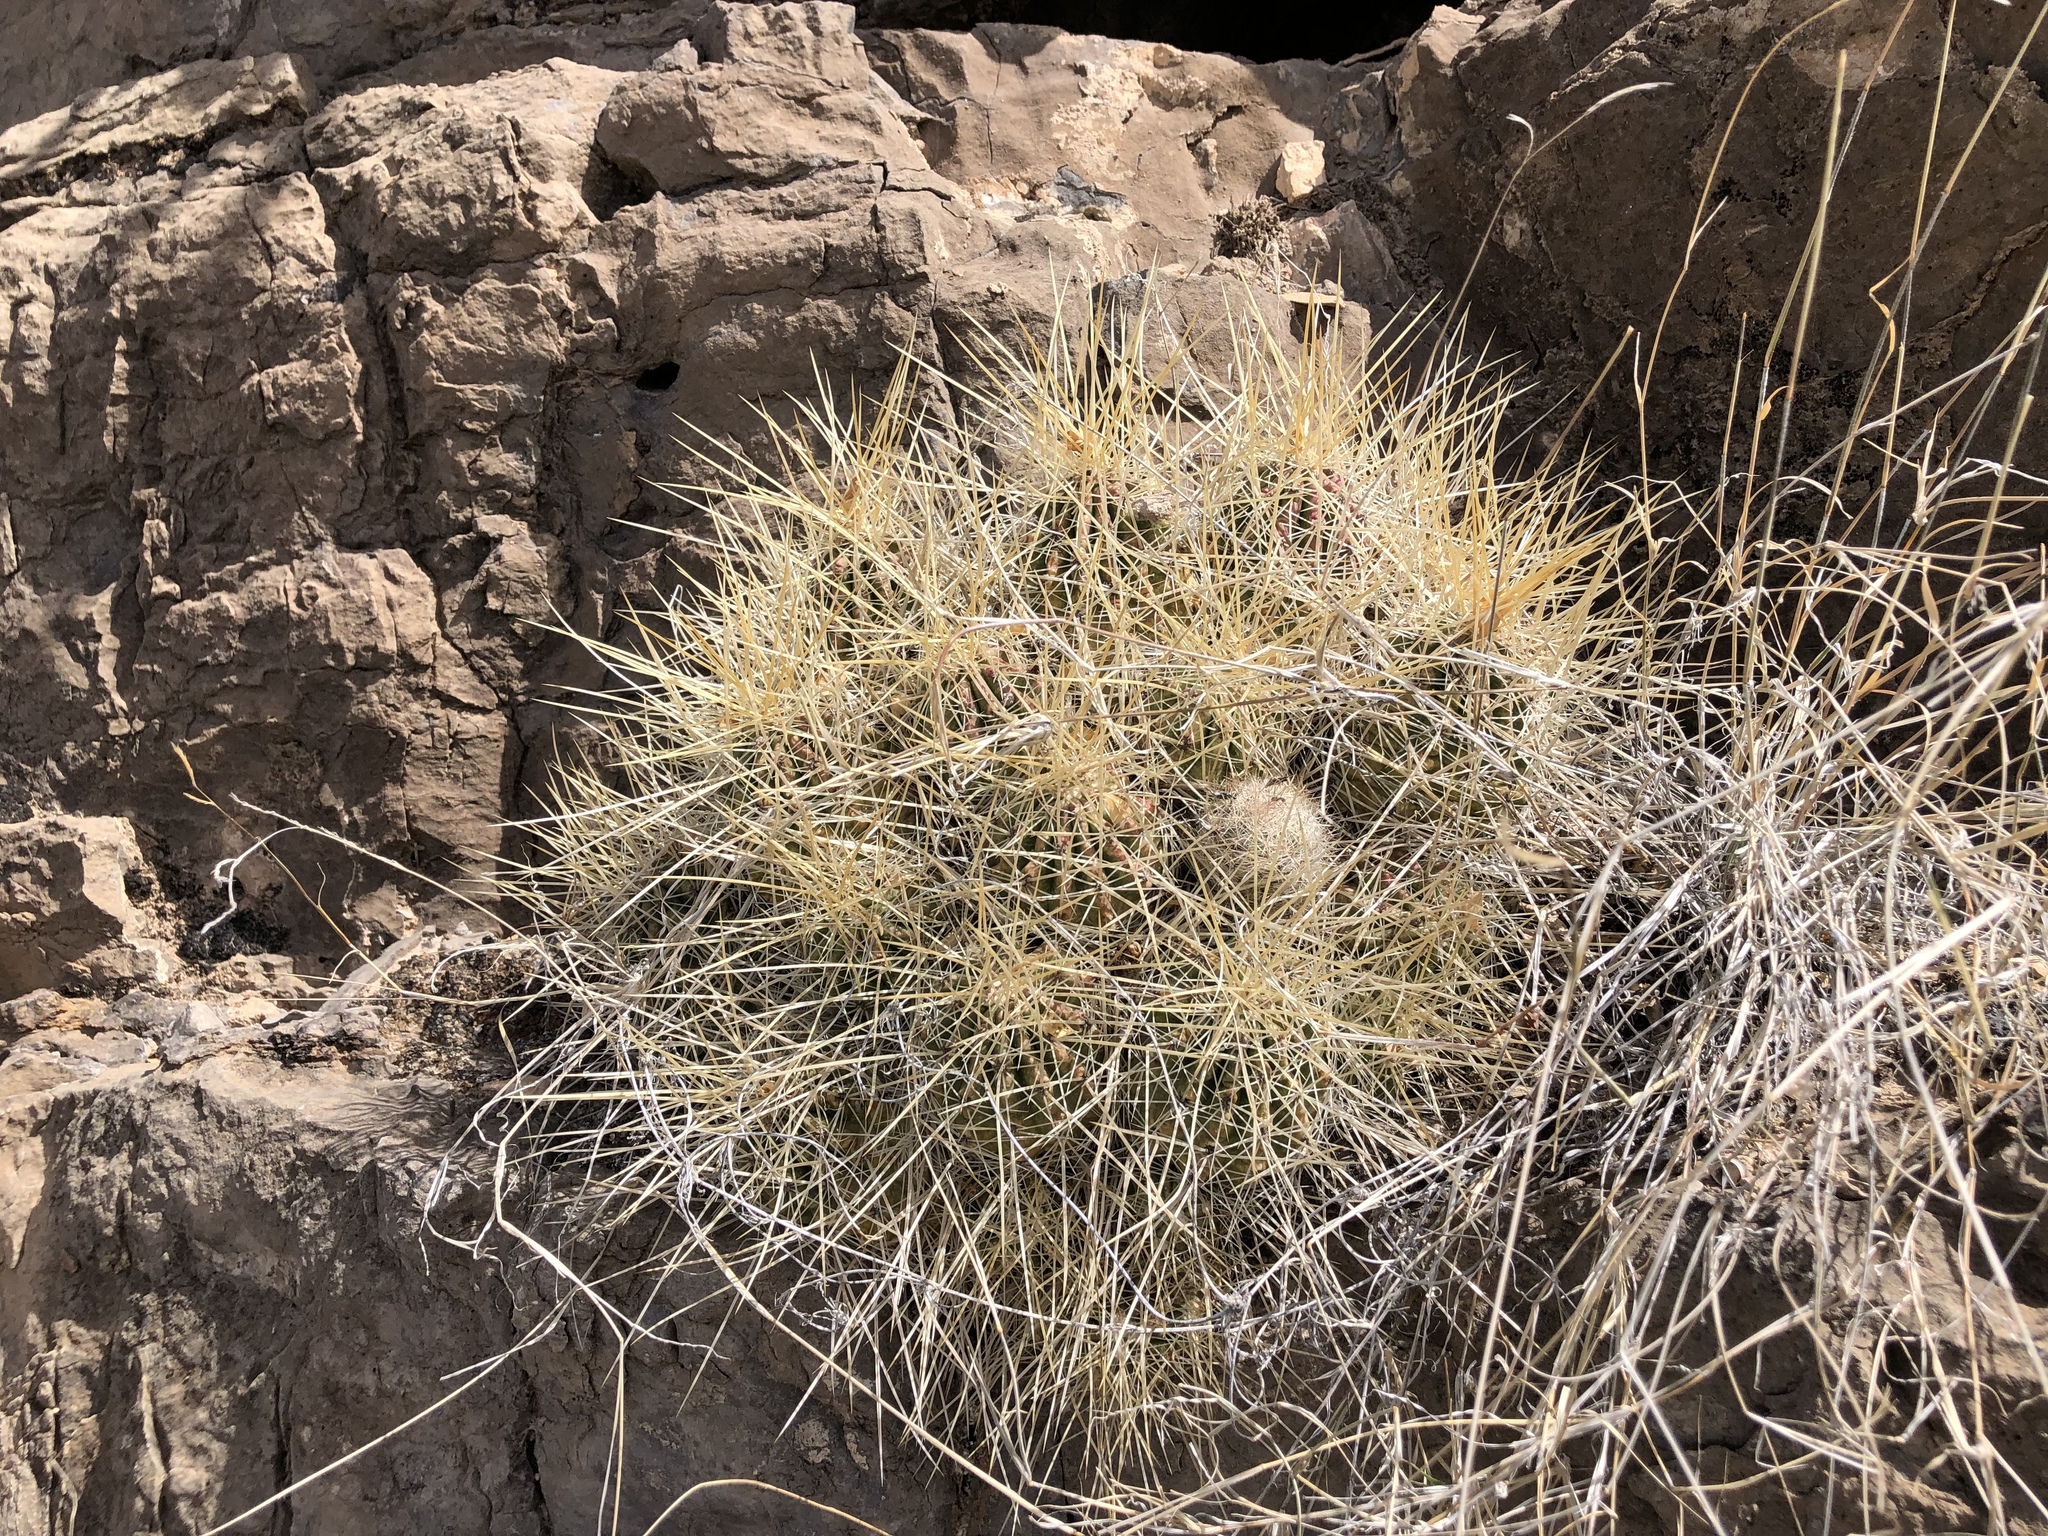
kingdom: Plantae
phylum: Tracheophyta
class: Magnoliopsida
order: Caryophyllales
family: Cactaceae
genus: Echinocereus
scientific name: Echinocereus stramineus
